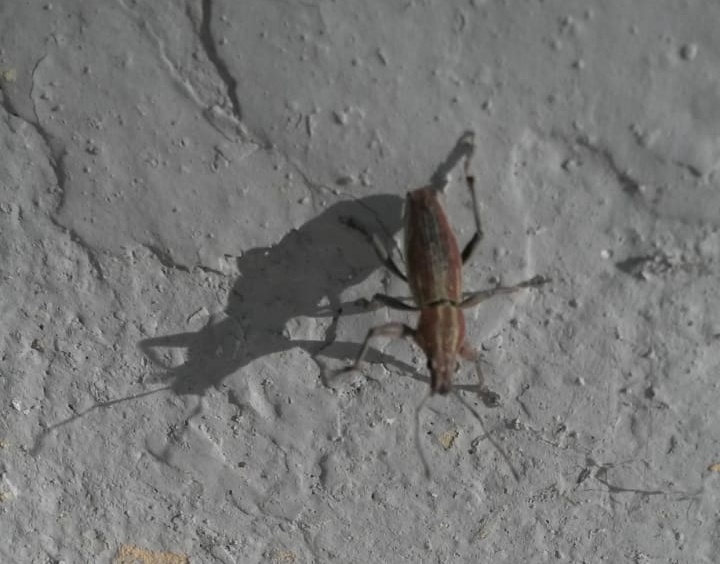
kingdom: Animalia
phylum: Arthropoda
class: Insecta
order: Coleoptera
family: Curculionidae
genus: Naupactus
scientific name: Naupactus xanthographus
